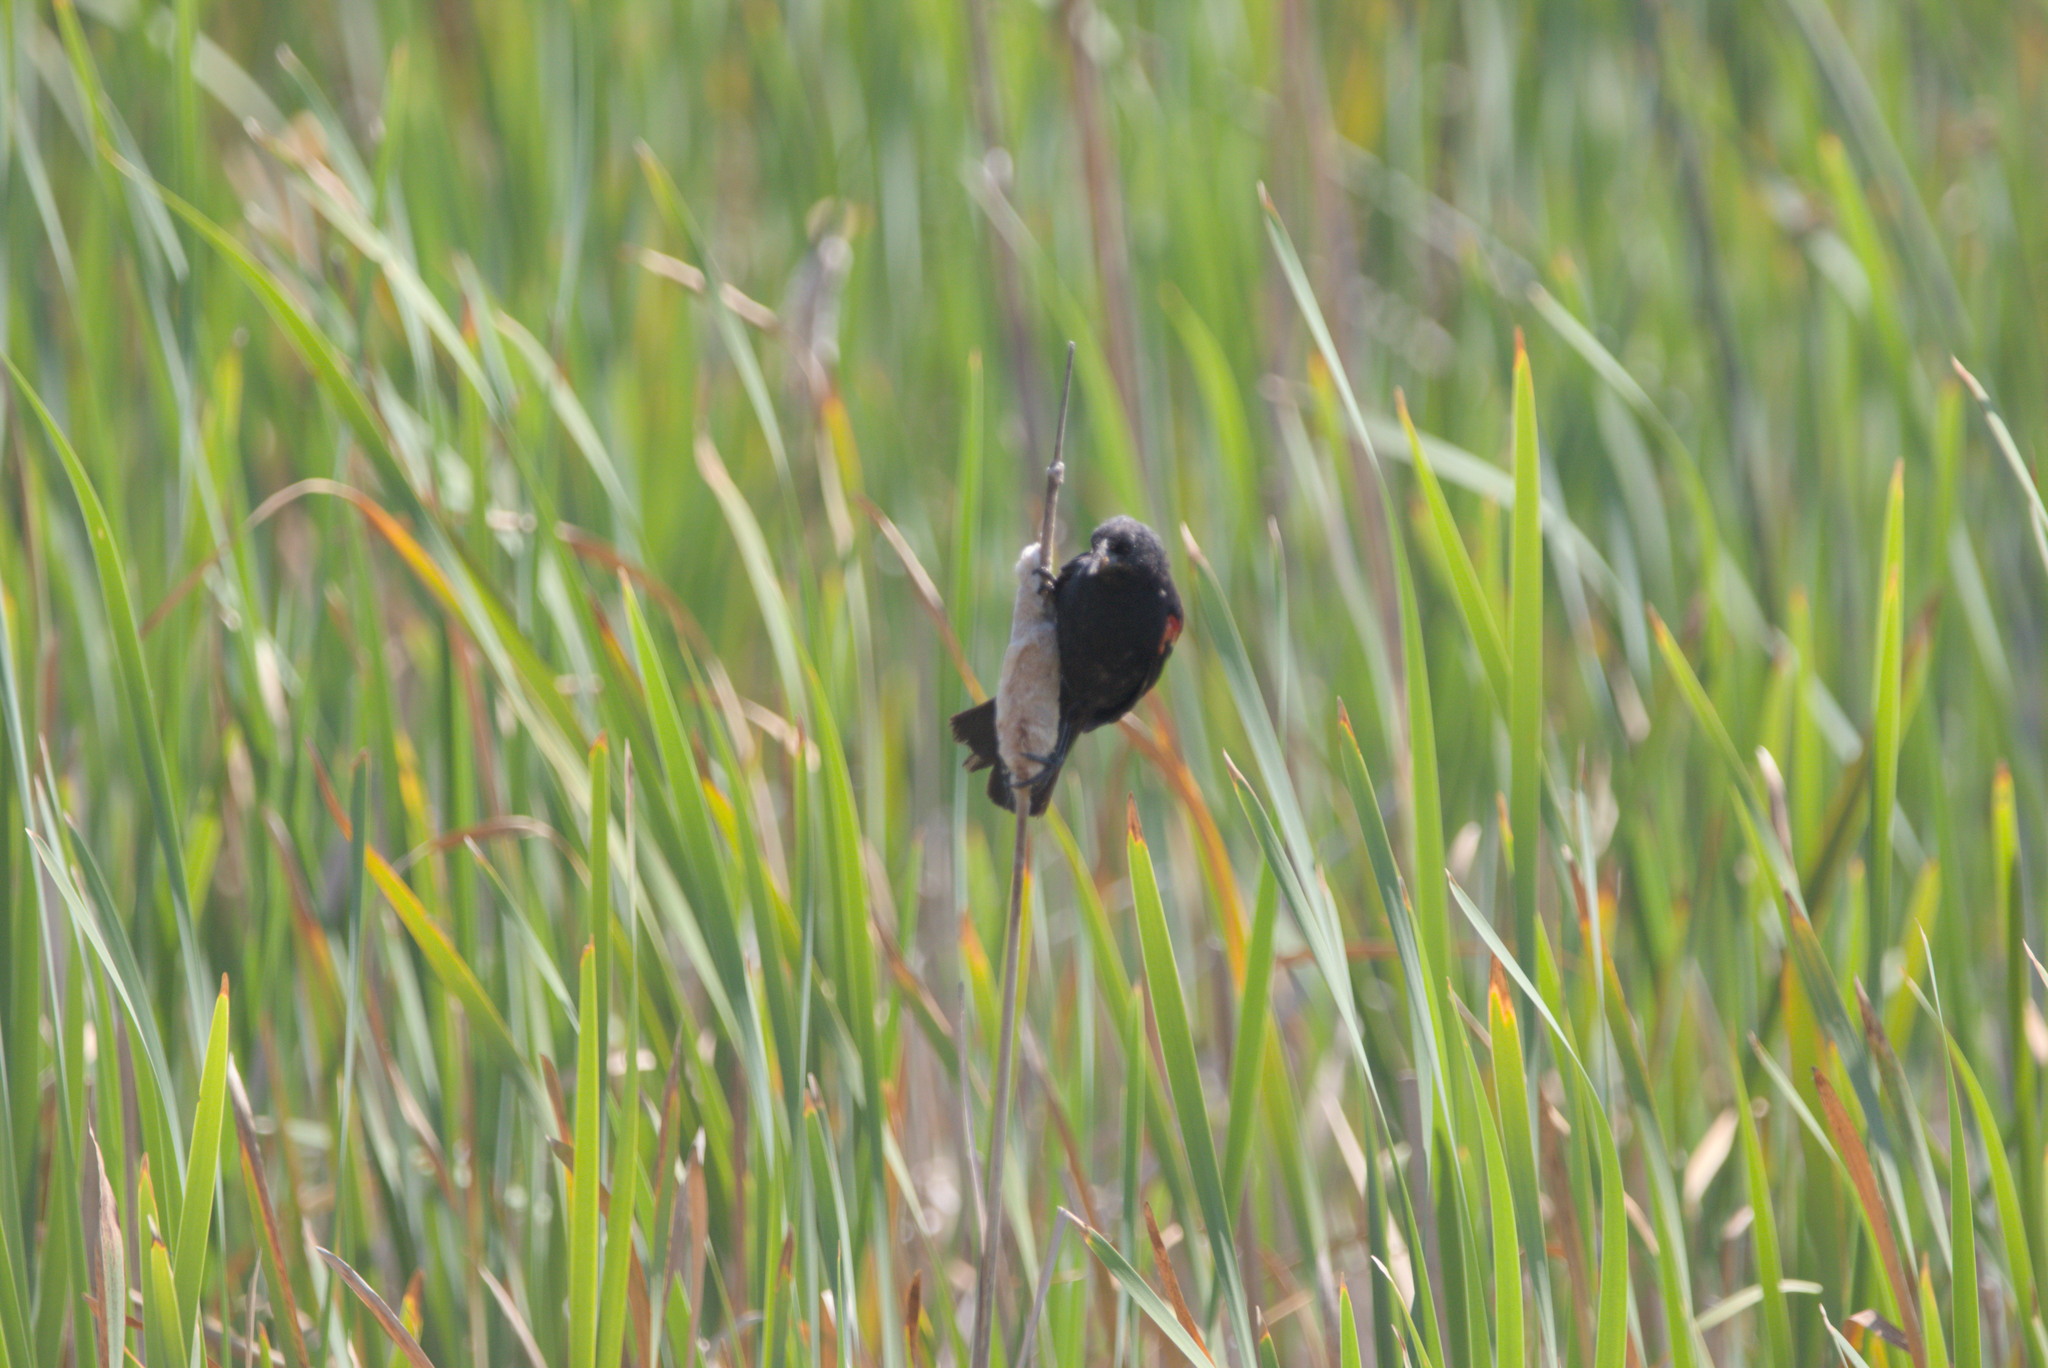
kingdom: Animalia
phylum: Chordata
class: Aves
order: Passeriformes
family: Icteridae
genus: Agelaius
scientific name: Agelaius phoeniceus
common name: Red-winged blackbird
